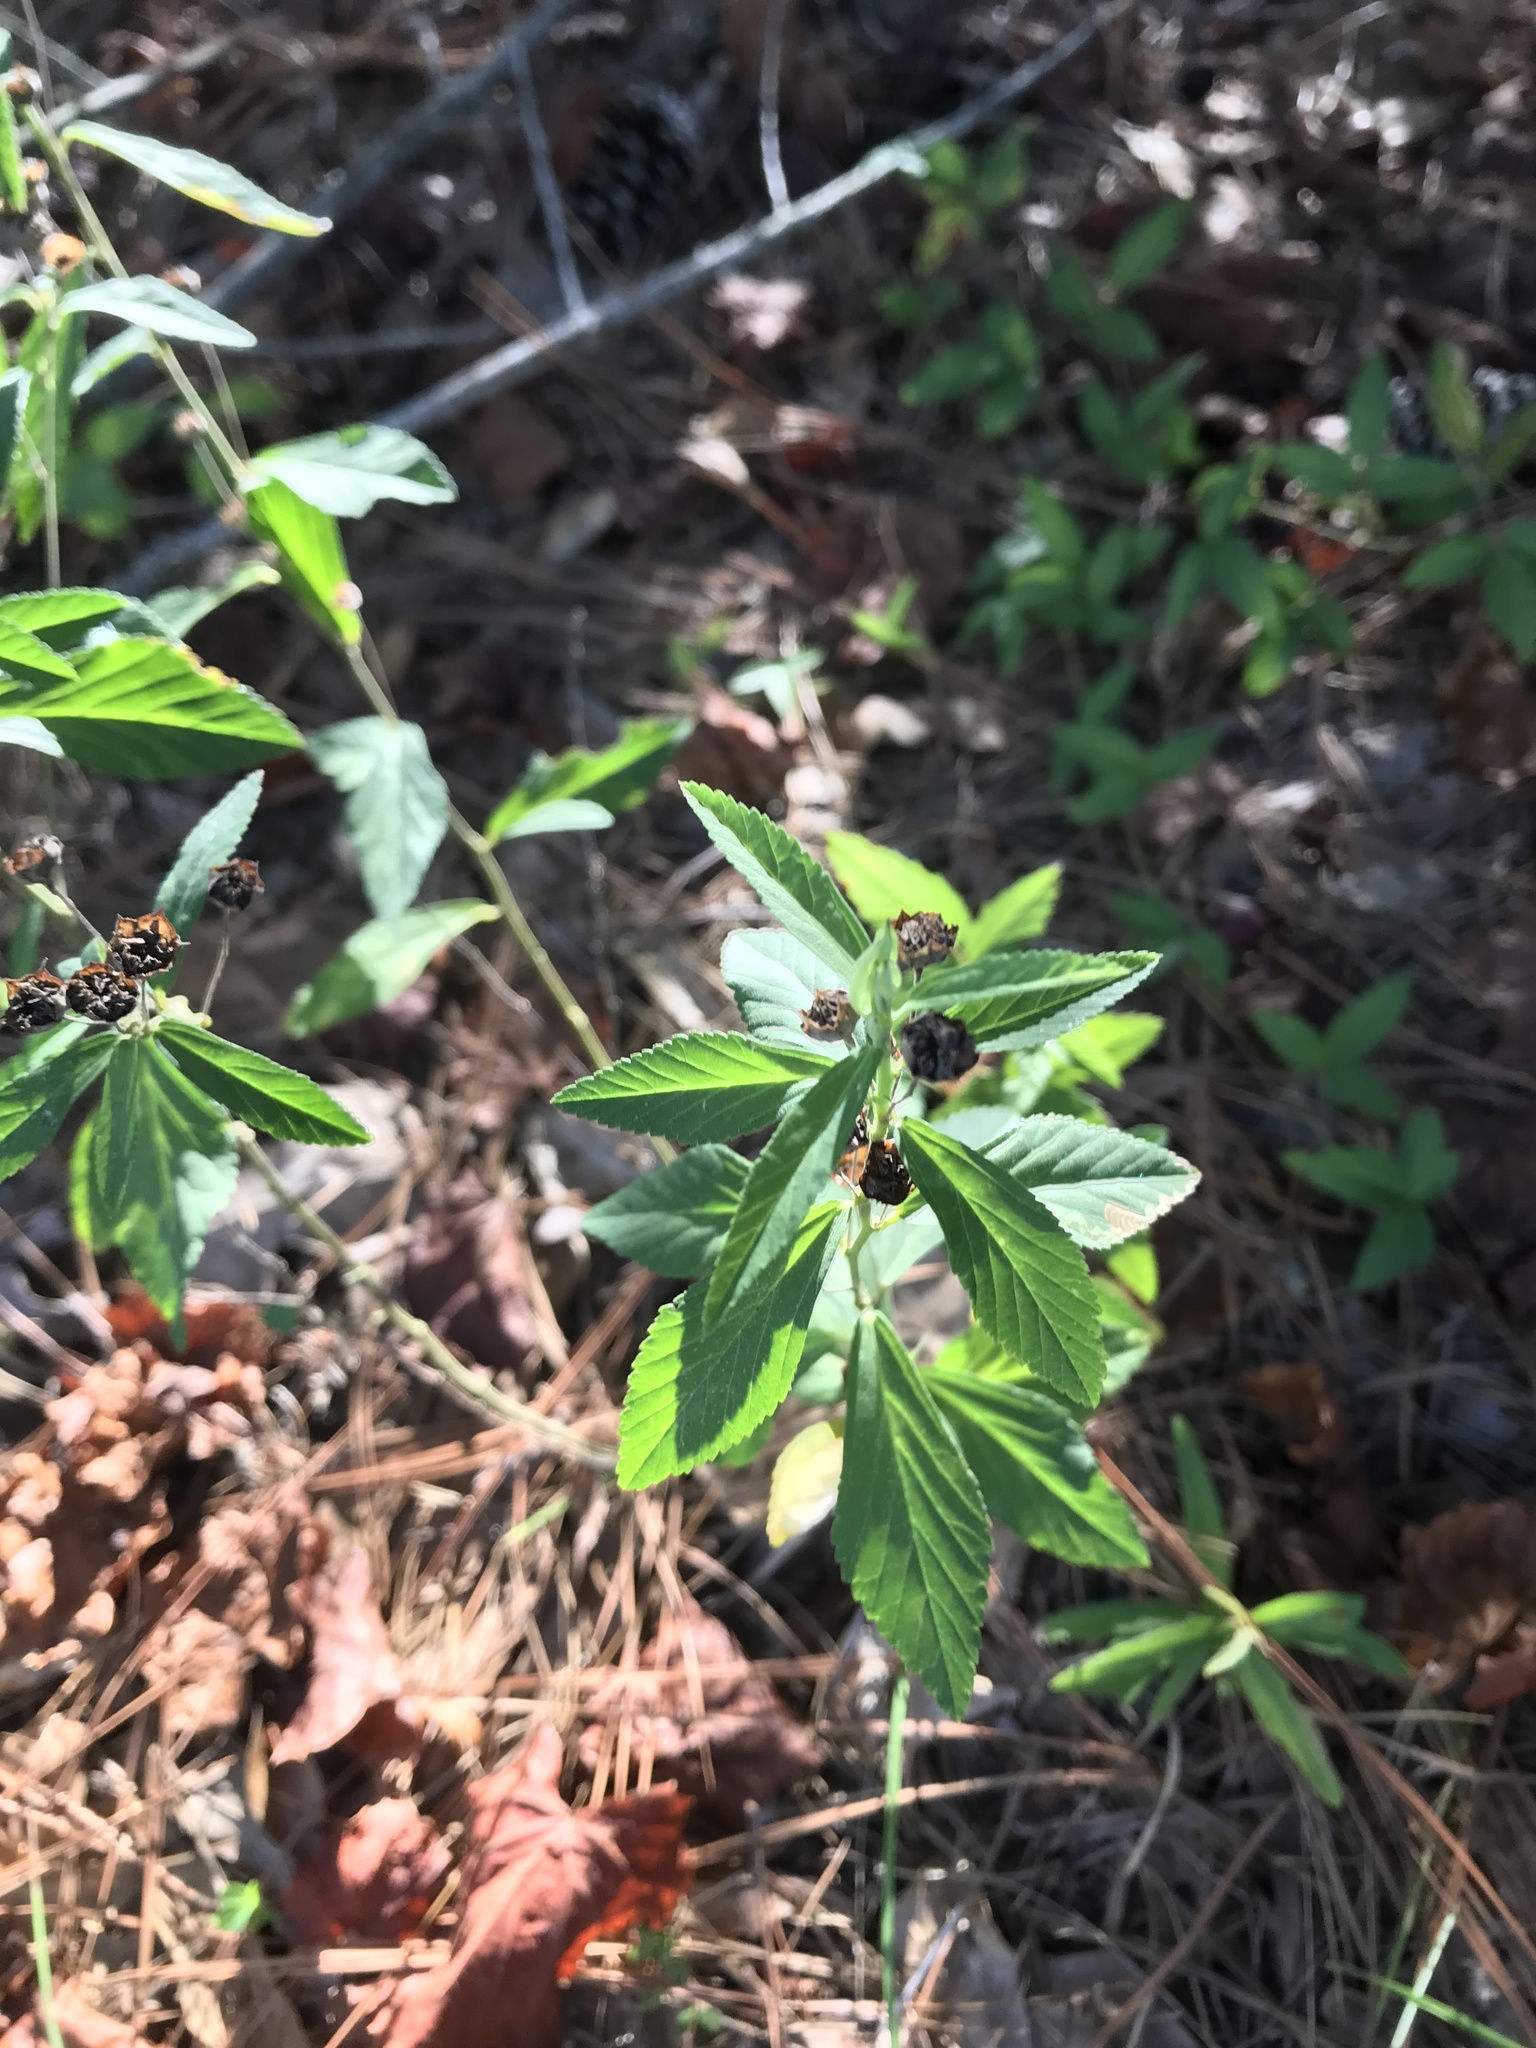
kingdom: Plantae
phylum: Tracheophyta
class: Magnoliopsida
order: Malvales
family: Malvaceae
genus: Sida
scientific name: Sida rhombifolia
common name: Queensland-hemp
